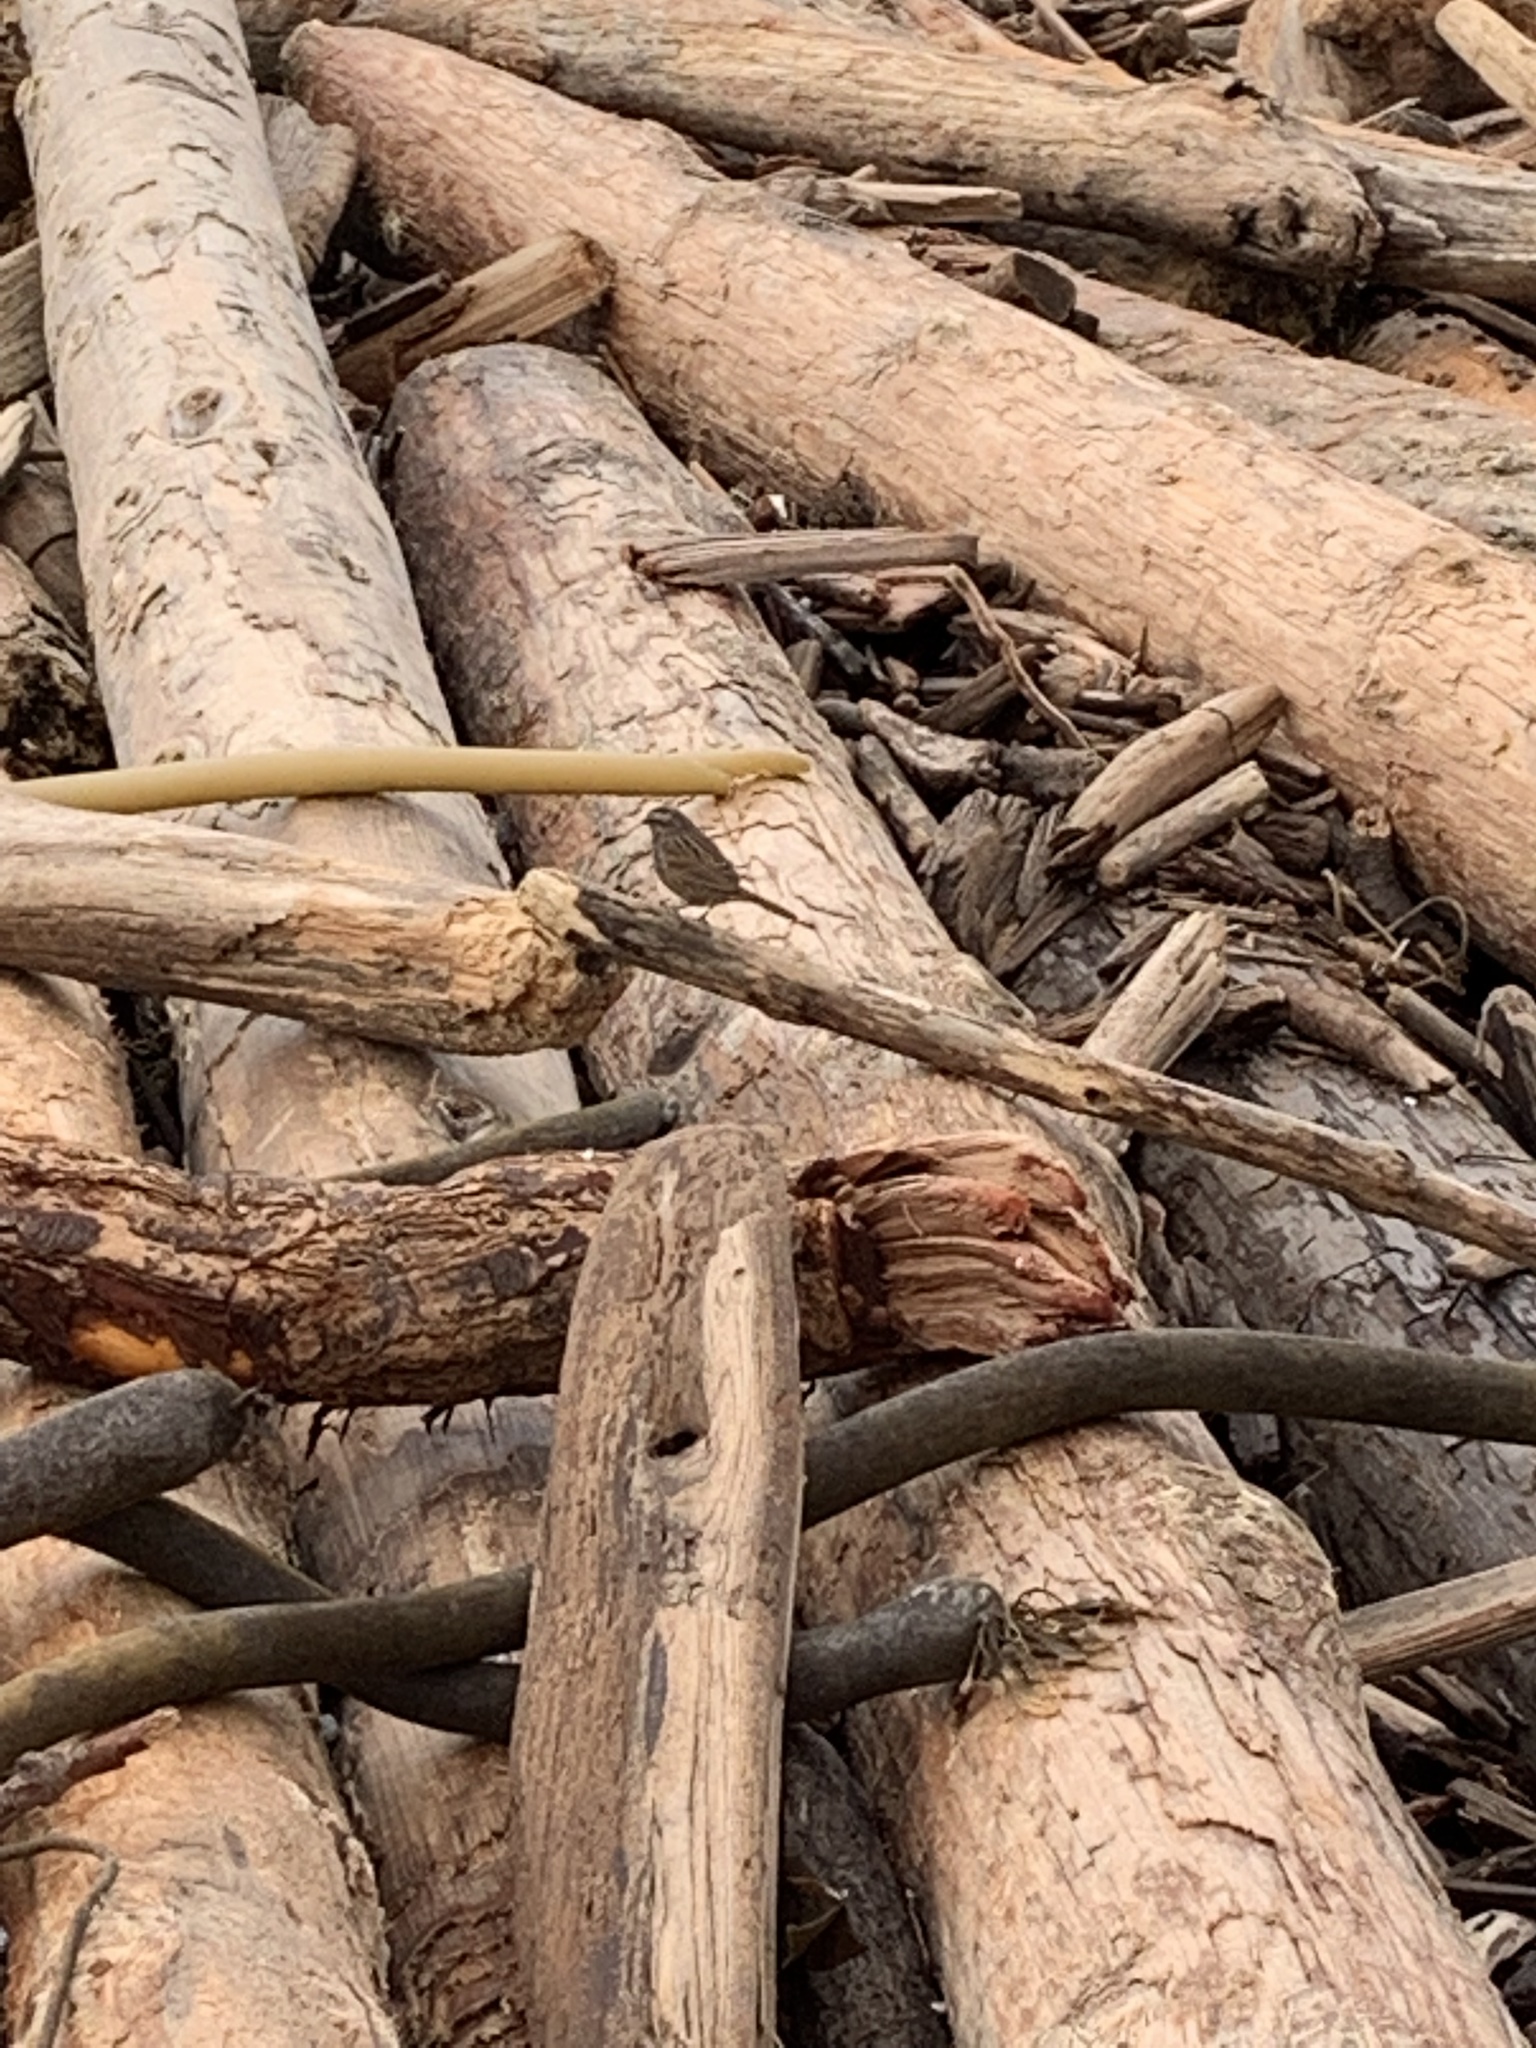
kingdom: Animalia
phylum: Chordata
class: Aves
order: Passeriformes
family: Passerellidae
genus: Melospiza
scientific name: Melospiza melodia
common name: Song sparrow
